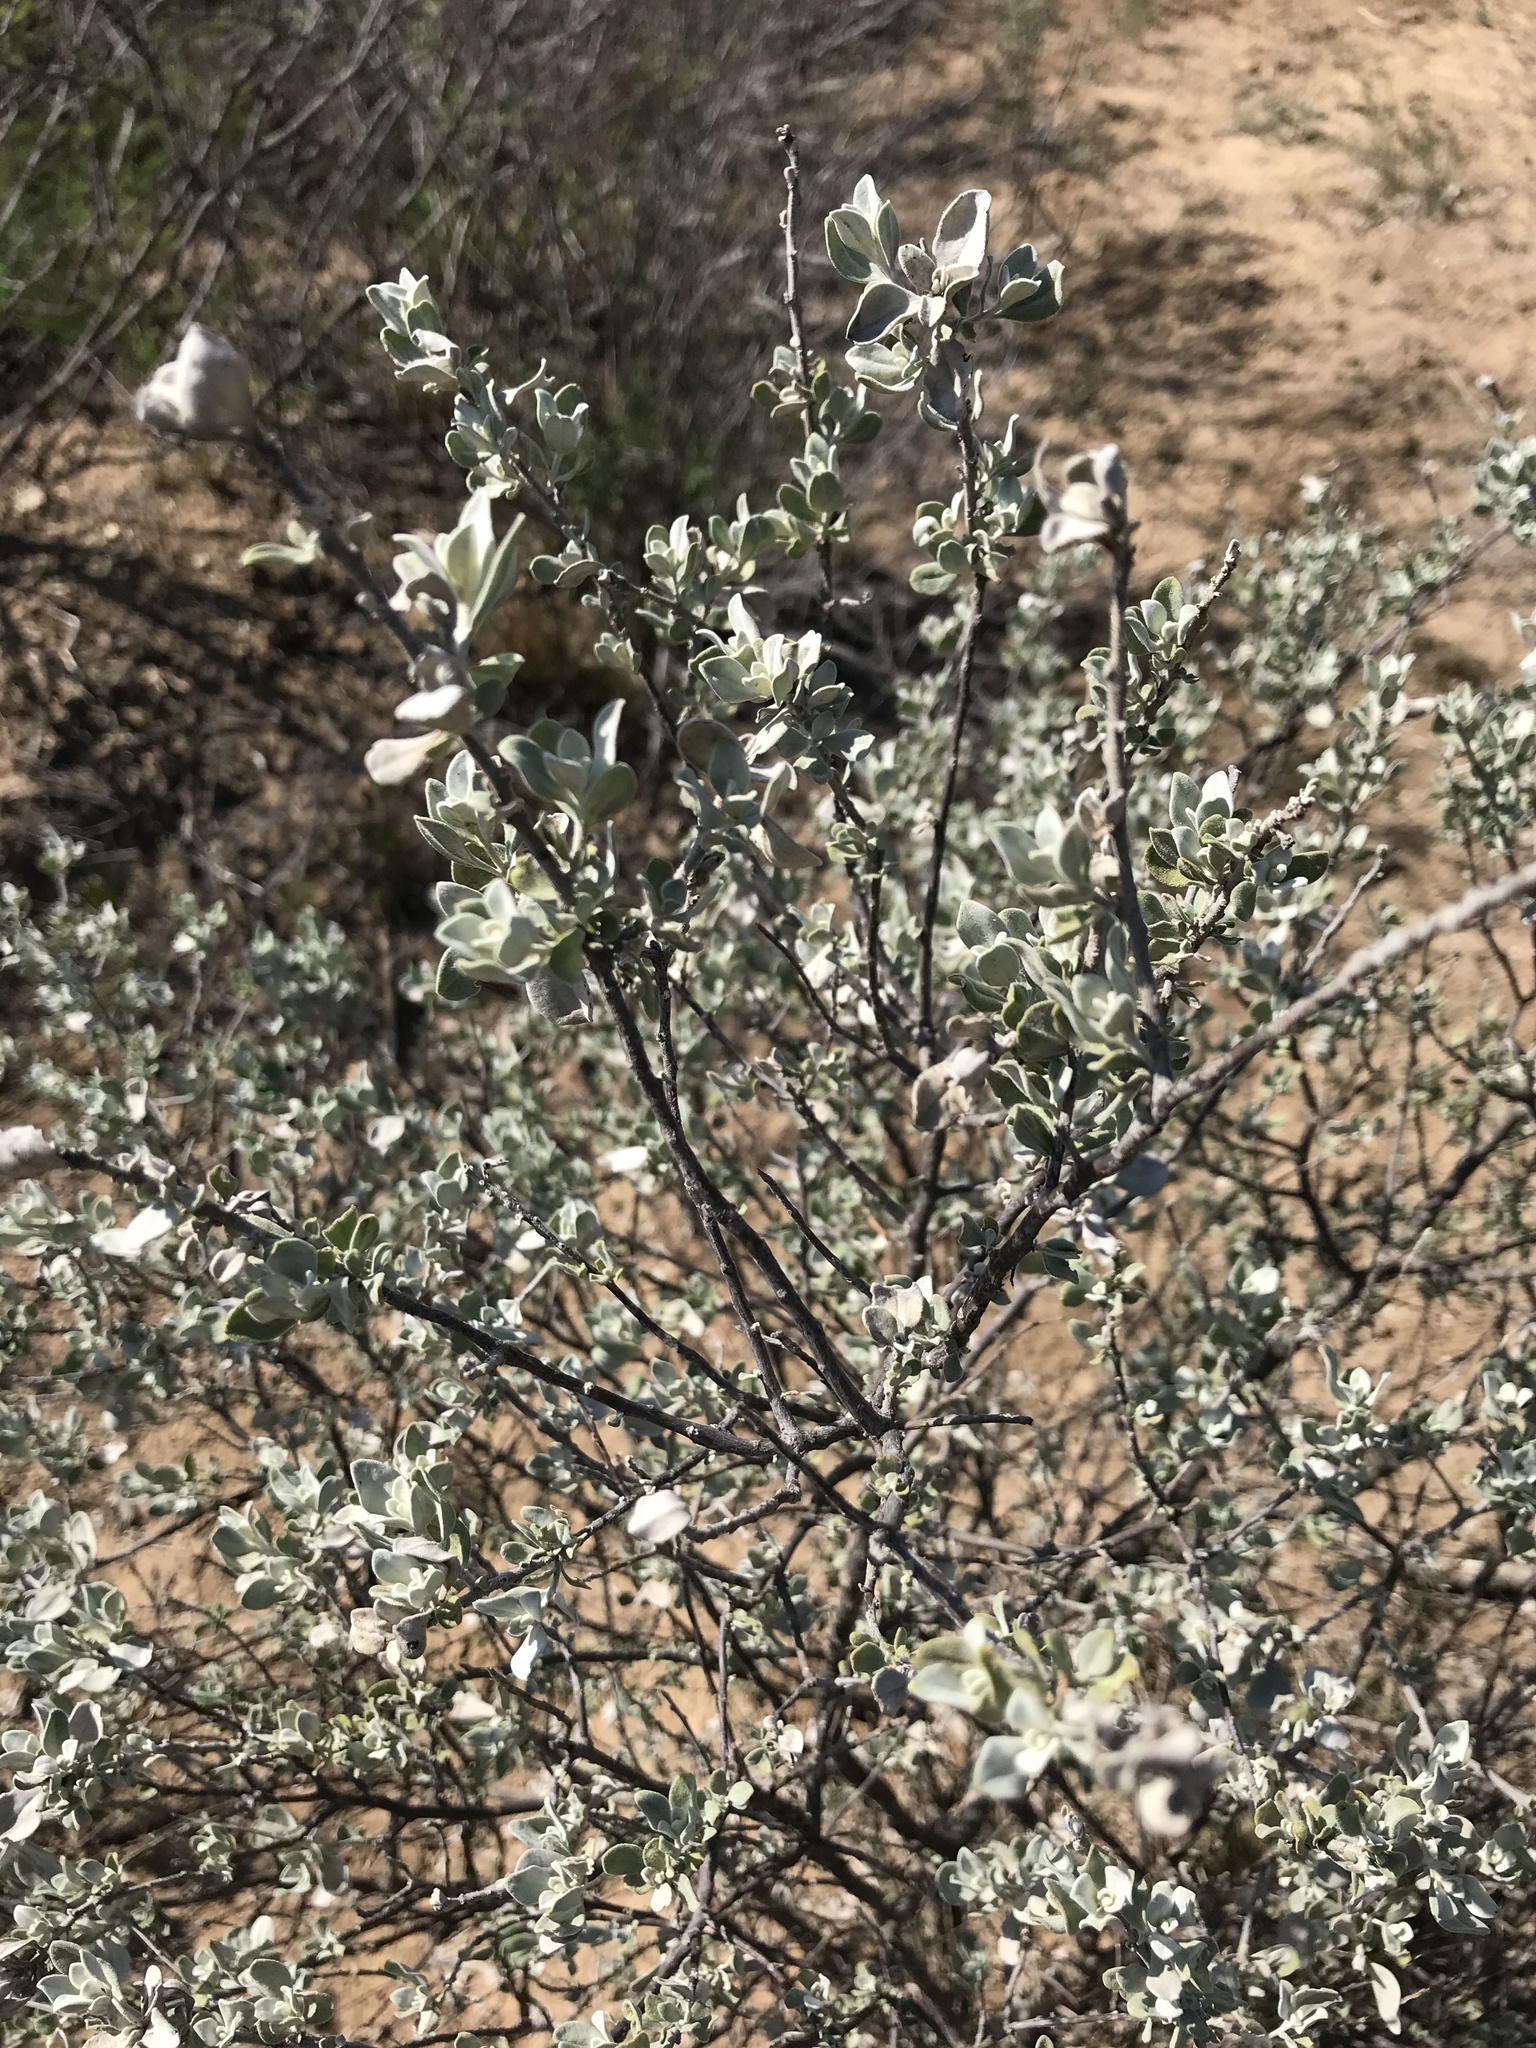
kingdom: Plantae
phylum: Tracheophyta
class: Magnoliopsida
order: Lamiales
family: Scrophulariaceae
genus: Leucophyllum
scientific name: Leucophyllum frutescens
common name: Texas silverleaf
